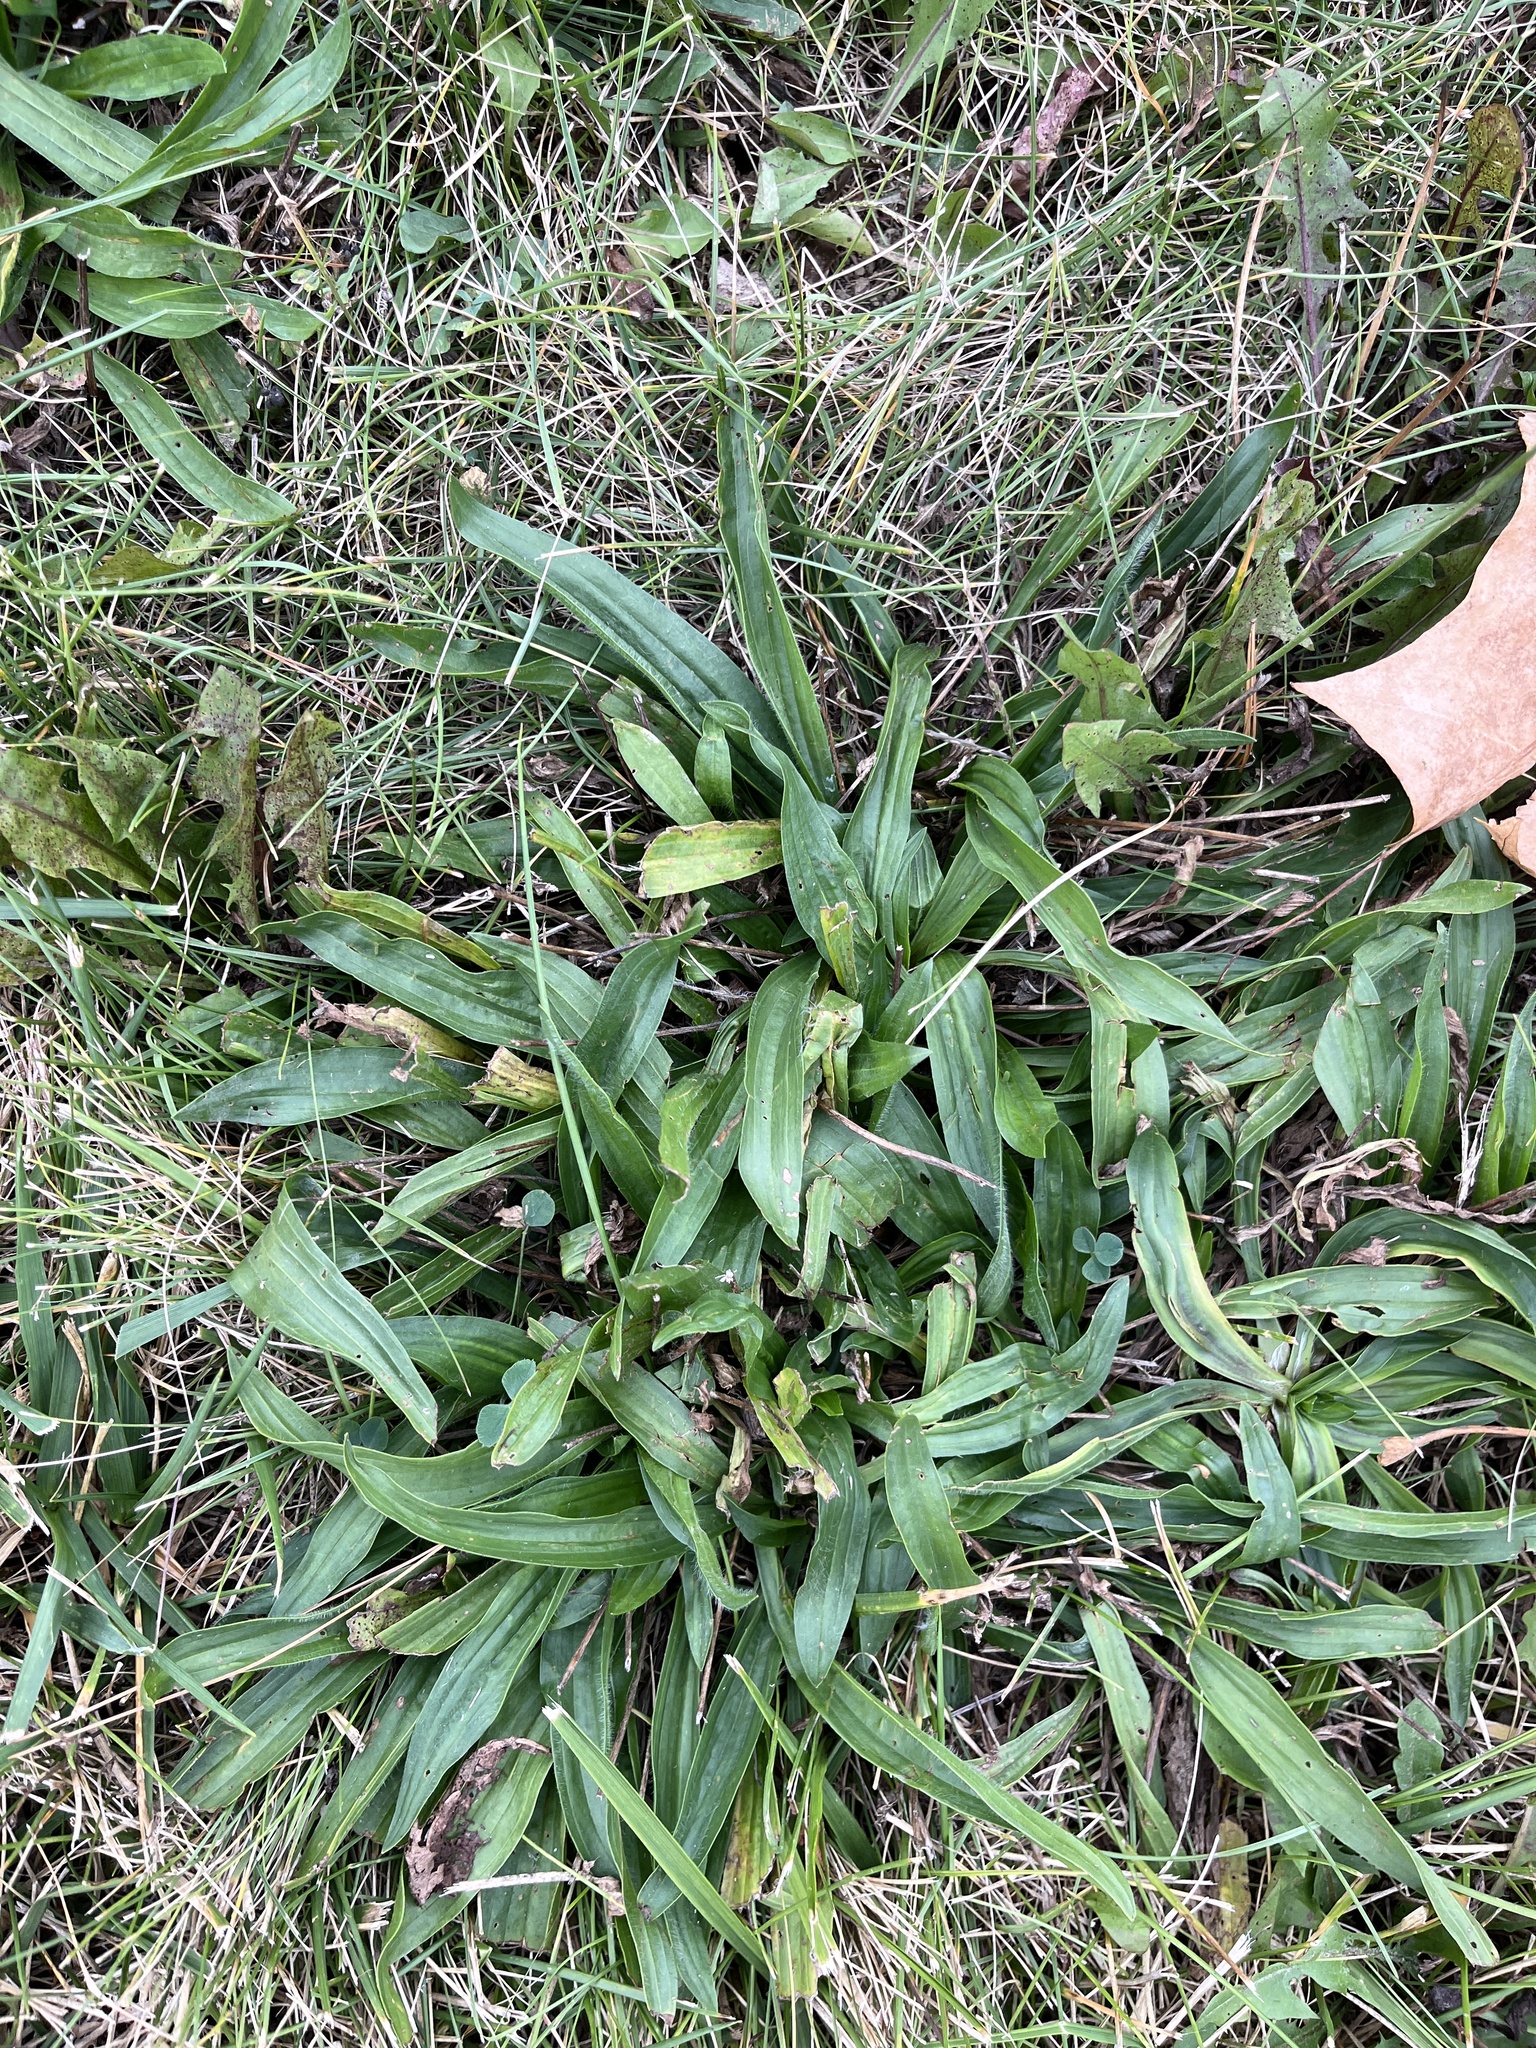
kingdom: Plantae
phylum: Tracheophyta
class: Magnoliopsida
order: Lamiales
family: Plantaginaceae
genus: Plantago
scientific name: Plantago lanceolata
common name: Ribwort plantain
